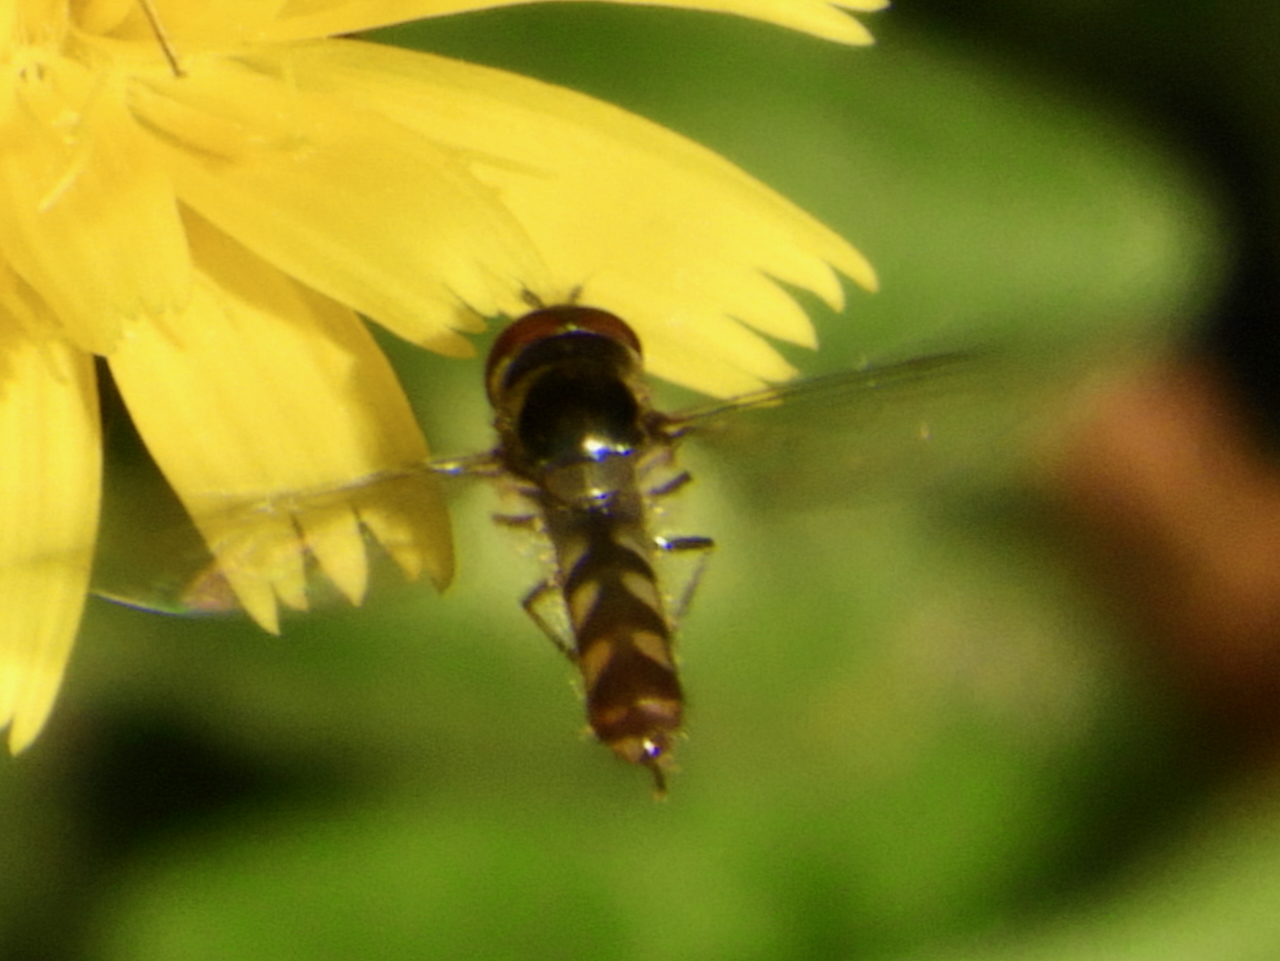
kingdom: Animalia
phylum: Arthropoda
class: Insecta
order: Diptera
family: Syrphidae
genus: Meliscaeva
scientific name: Meliscaeva auricollis
